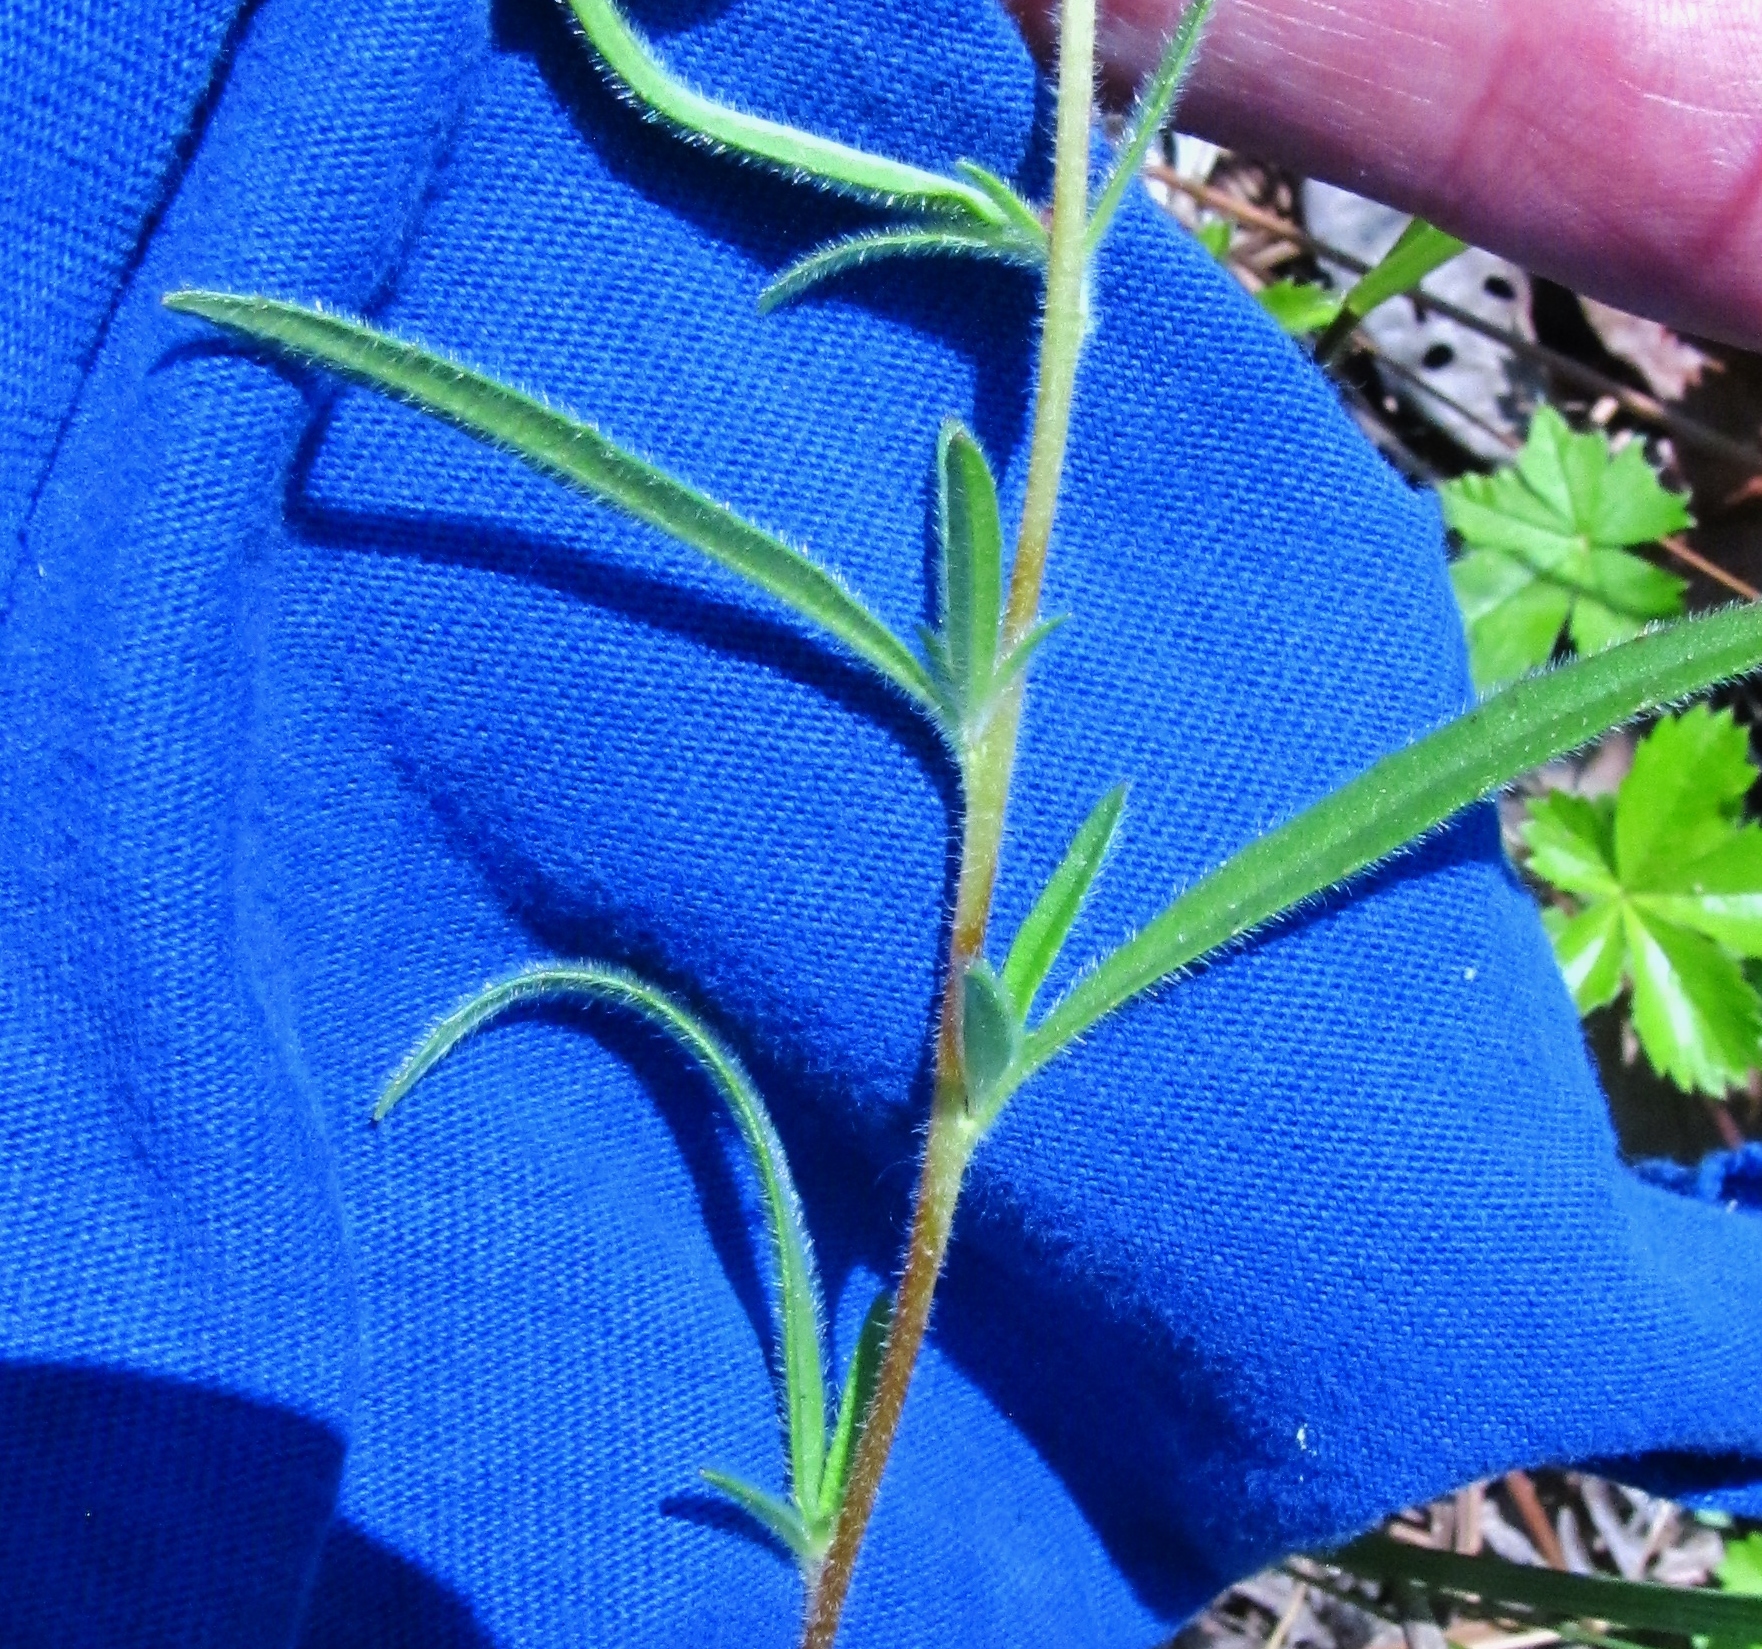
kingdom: Plantae
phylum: Tracheophyta
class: Magnoliopsida
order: Myrtales
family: Onagraceae
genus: Oenothera
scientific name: Oenothera fruticosa
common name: Southern sundrops
